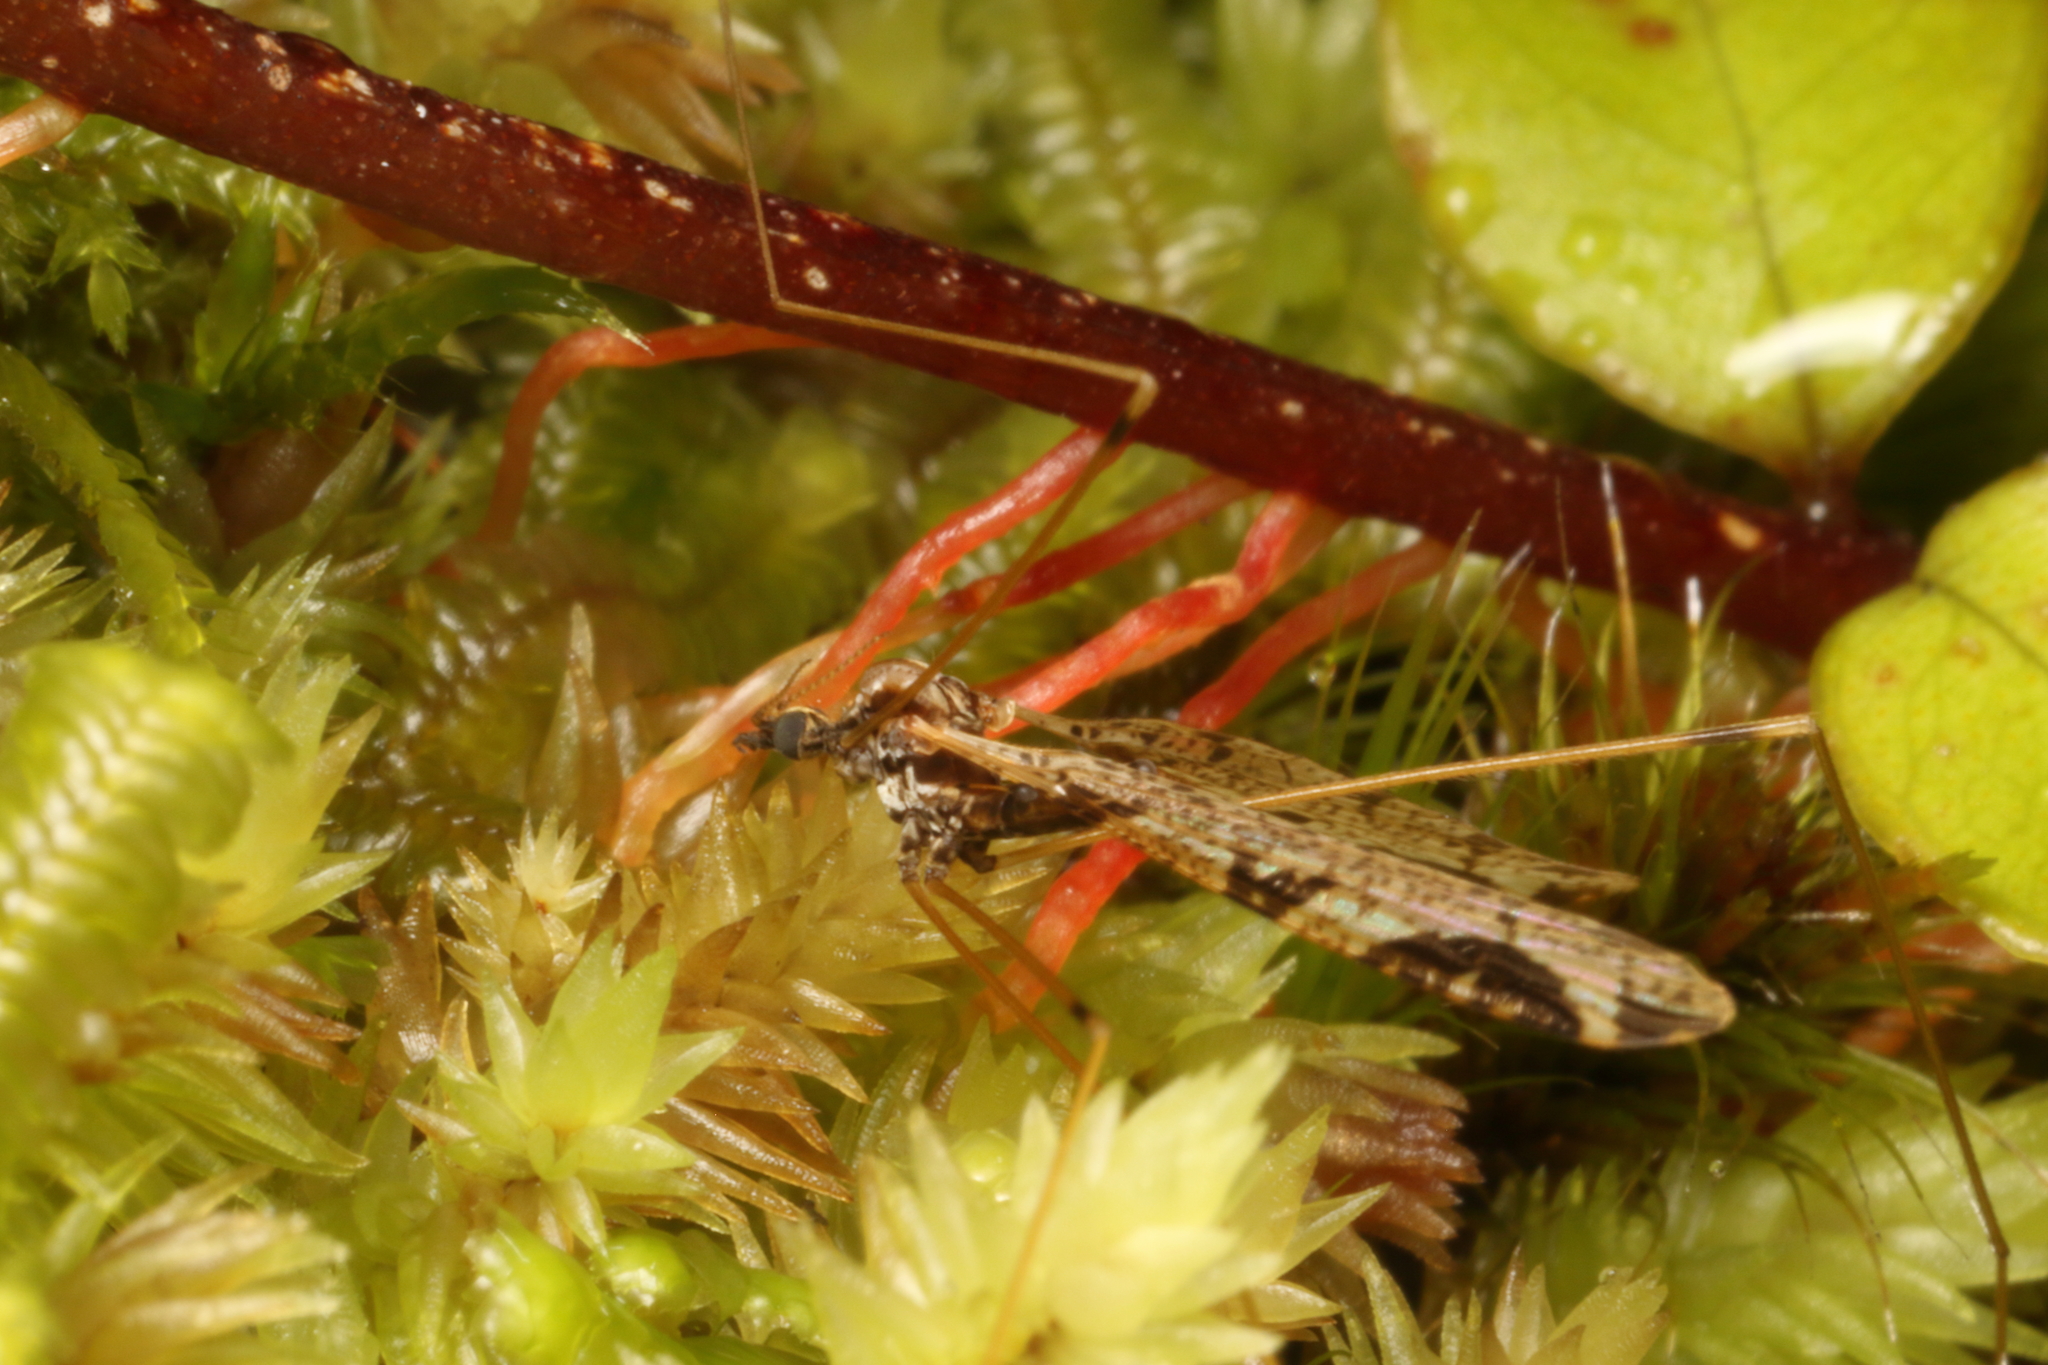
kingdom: Animalia
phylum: Arthropoda
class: Insecta
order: Diptera
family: Limoniidae
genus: Discobola
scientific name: Discobola striata
